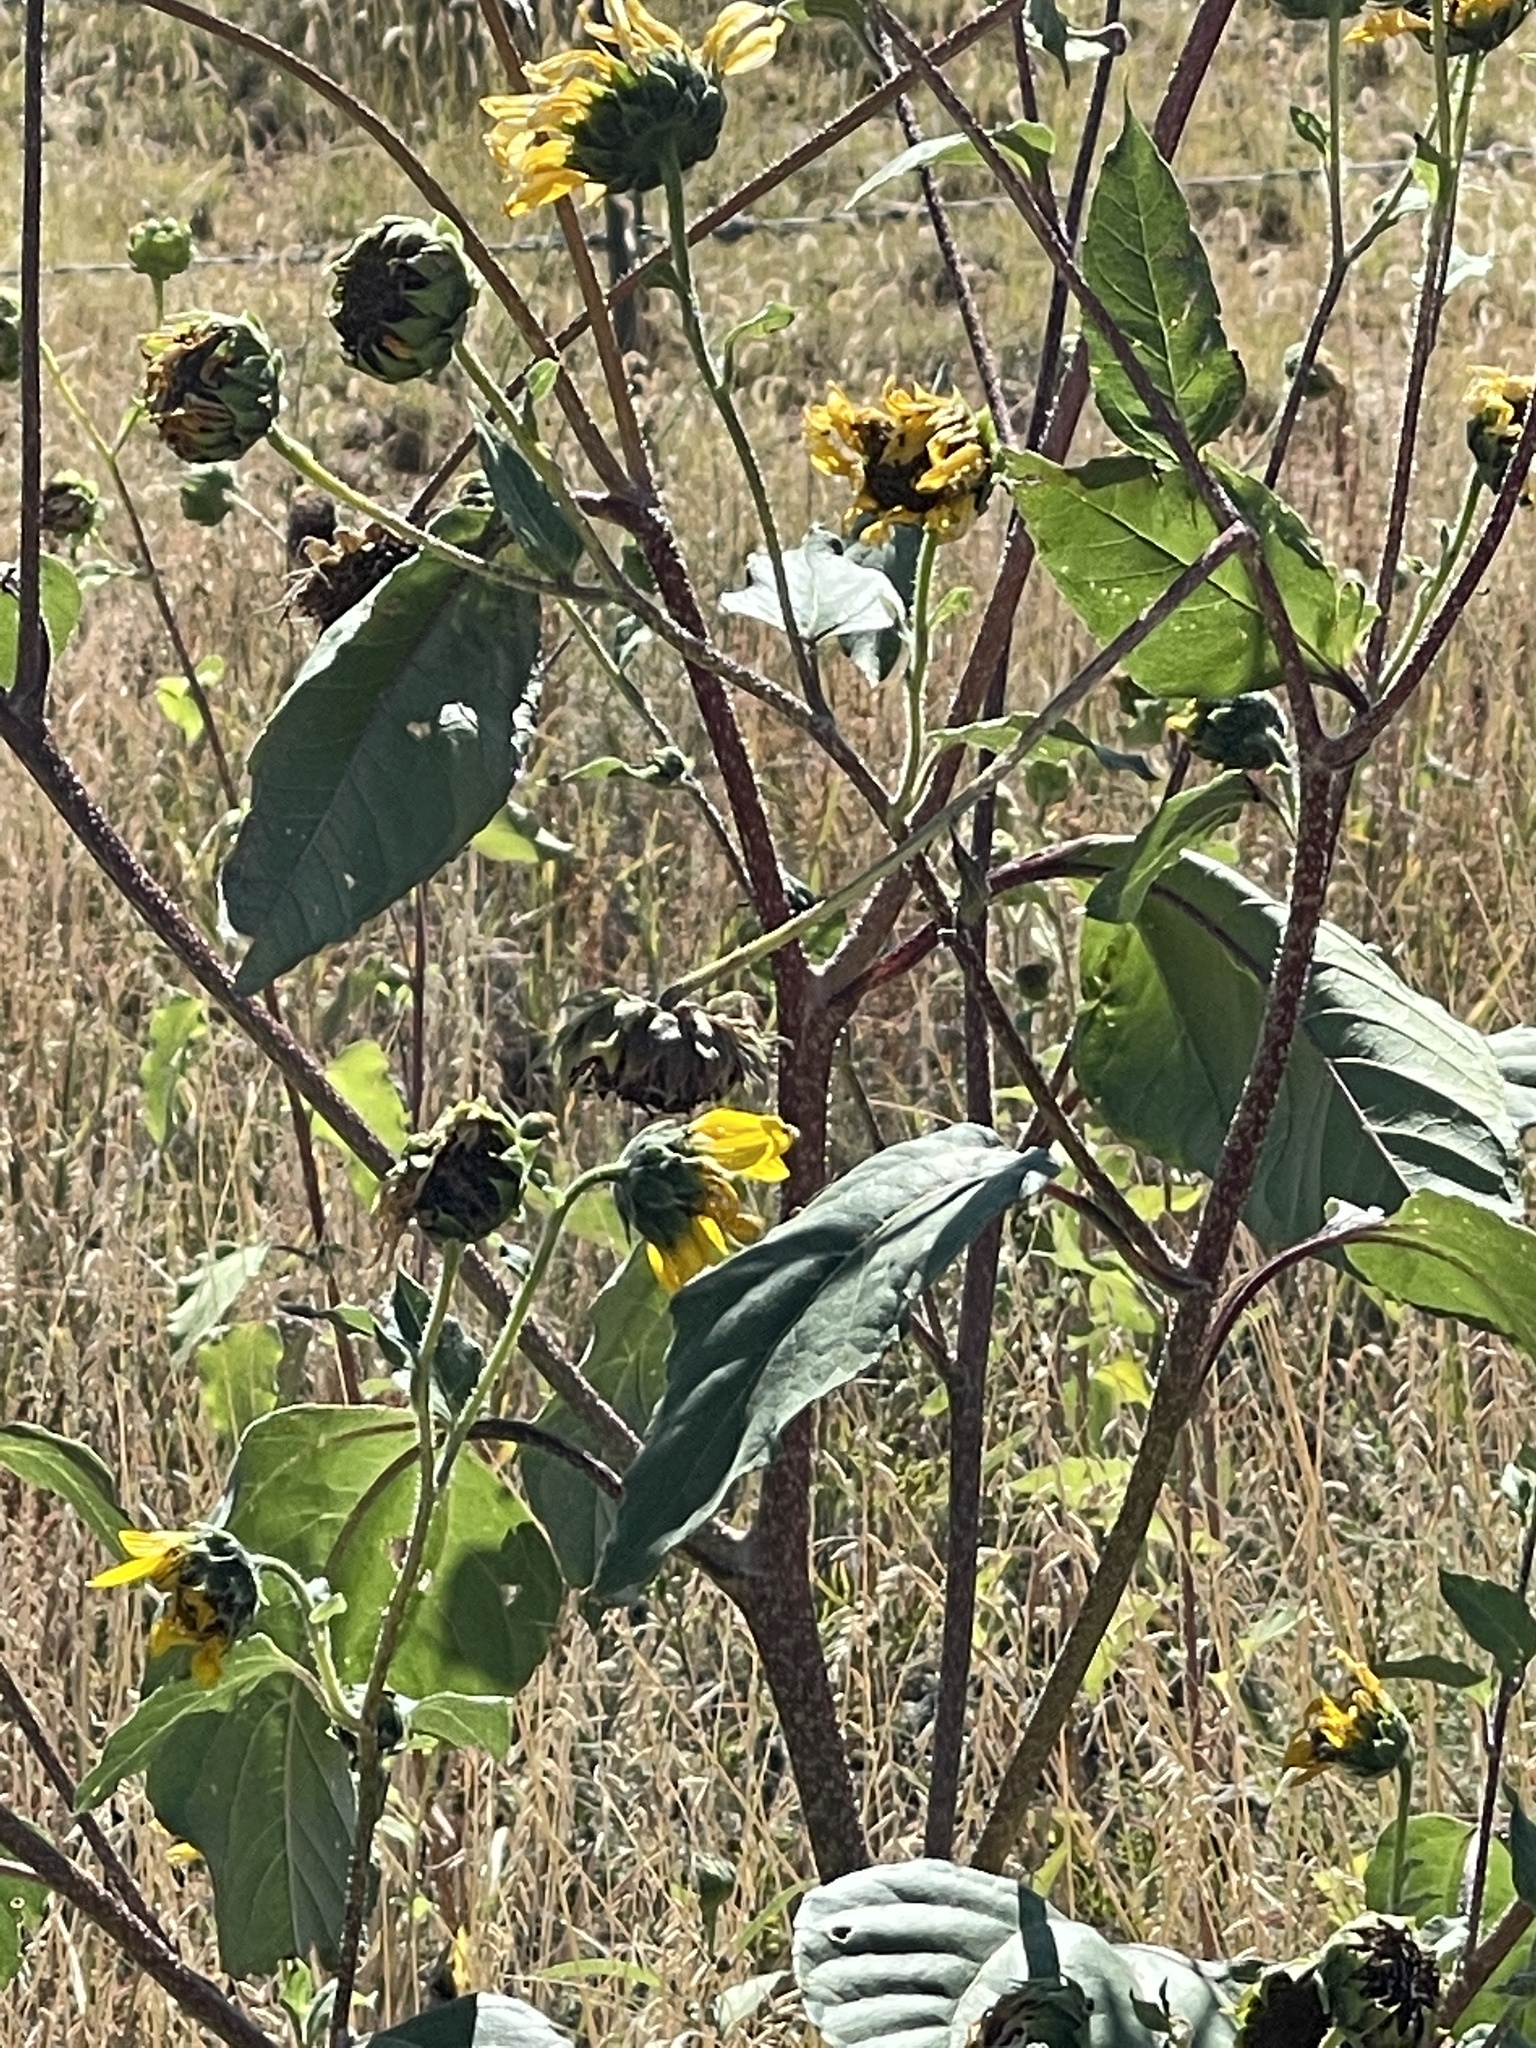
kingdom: Plantae
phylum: Tracheophyta
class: Magnoliopsida
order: Asterales
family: Asteraceae
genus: Helianthus
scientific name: Helianthus annuus
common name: Sunflower
